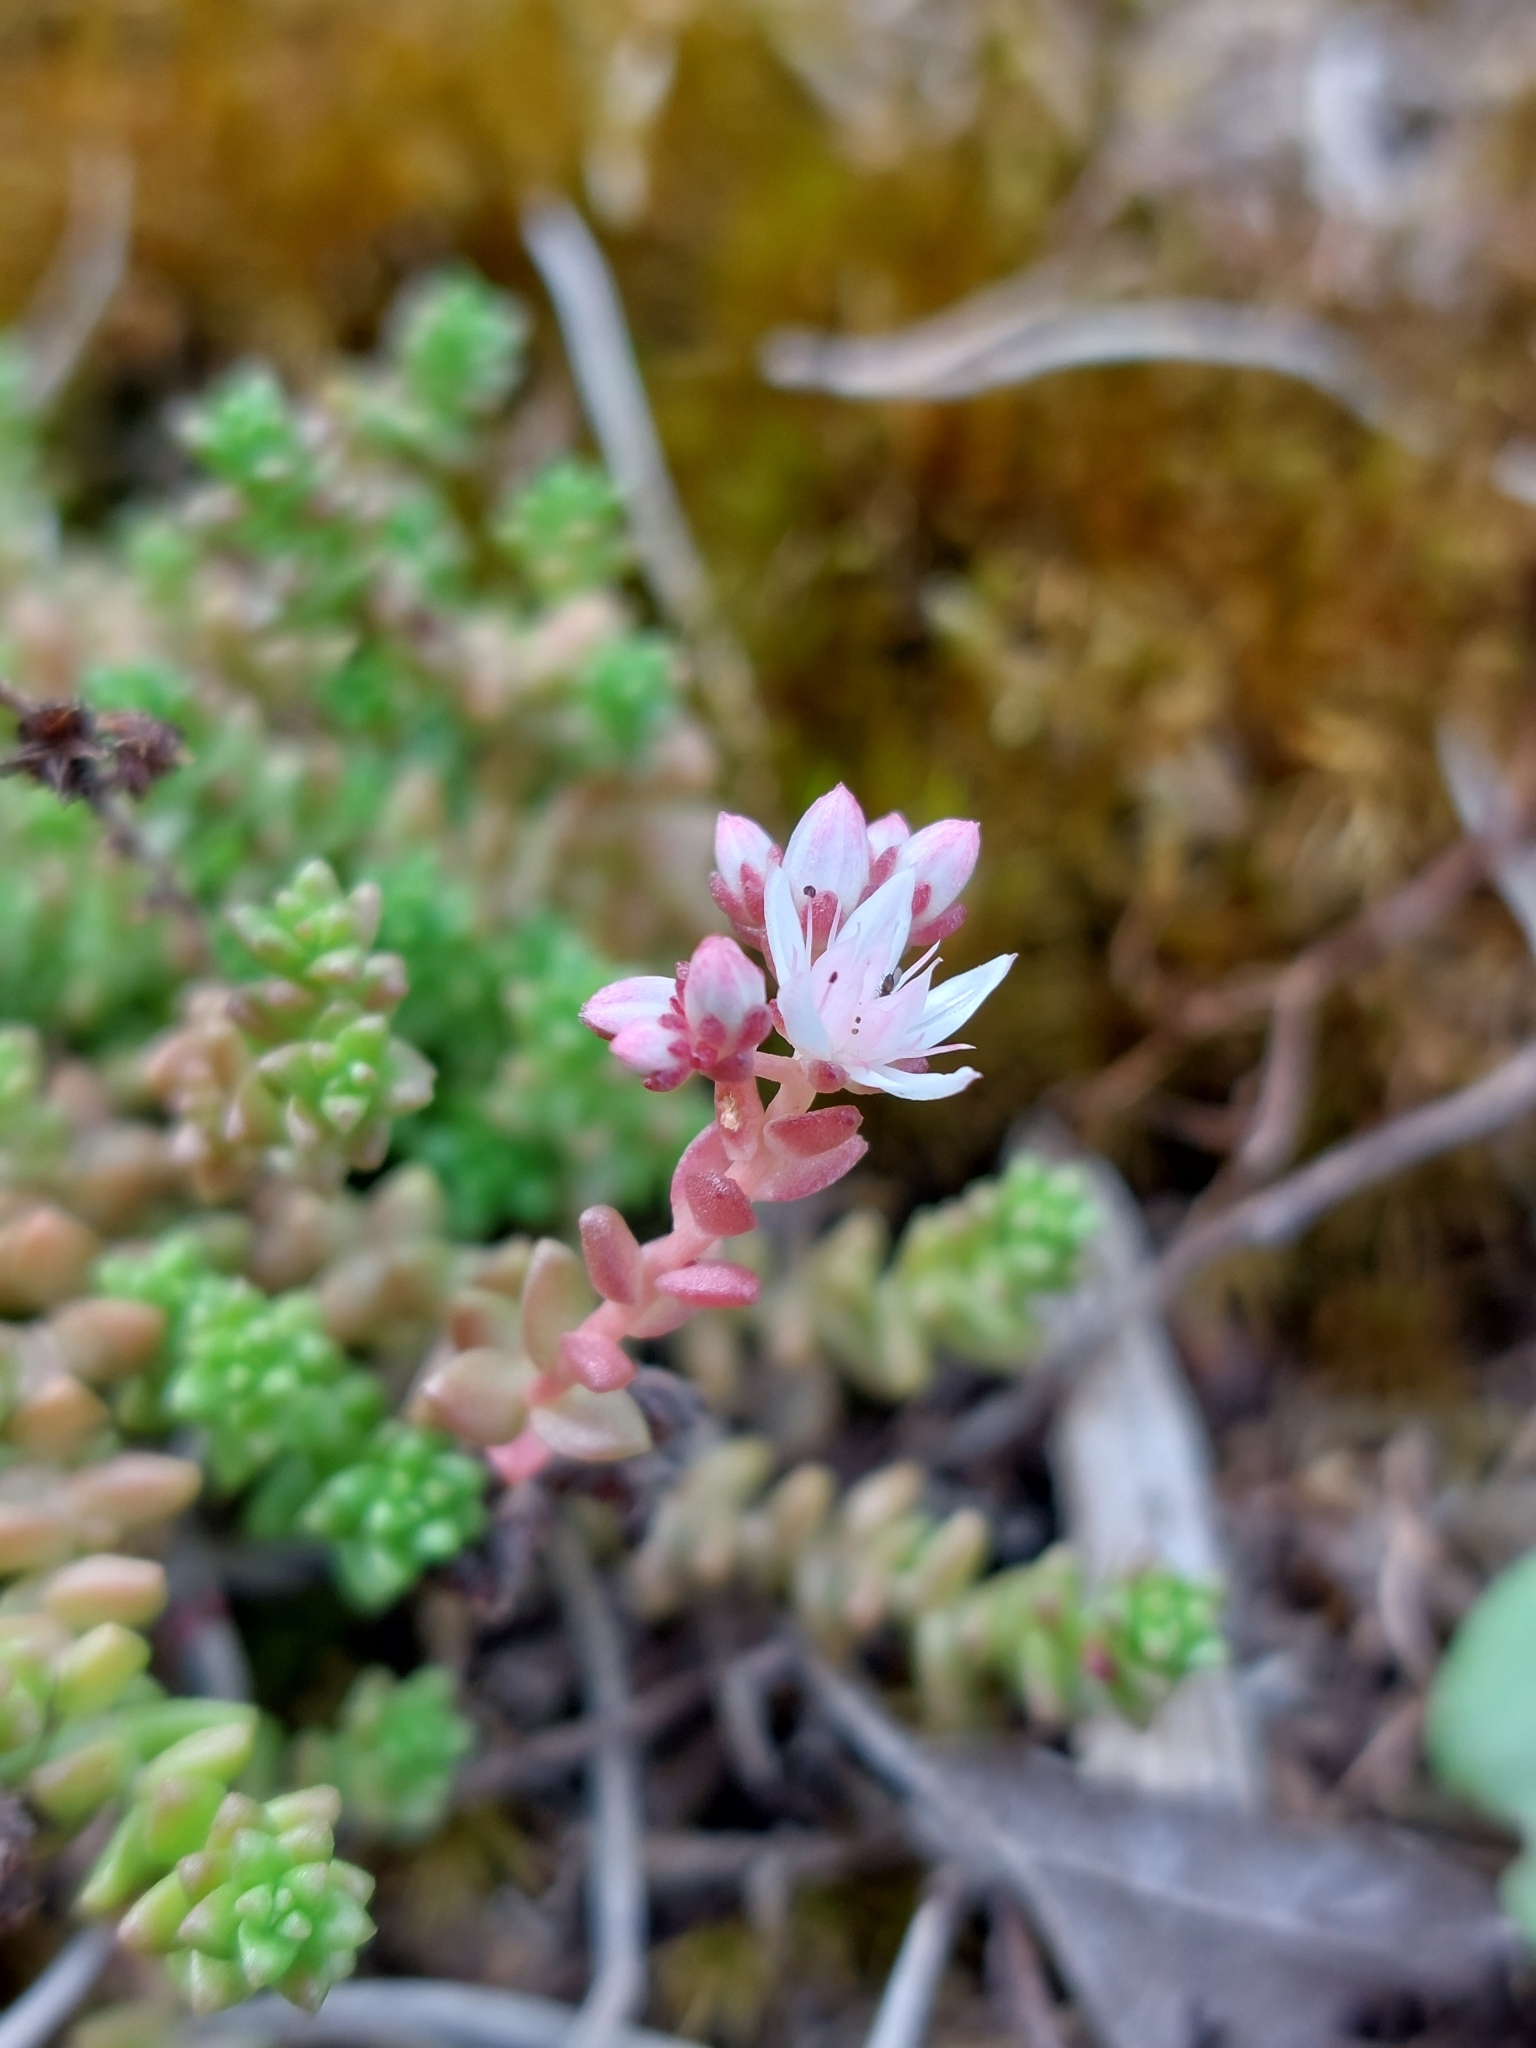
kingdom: Plantae
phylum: Tracheophyta
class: Magnoliopsida
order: Saxifragales
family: Crassulaceae
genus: Sedum
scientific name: Sedum anglicum
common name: English stonecrop
